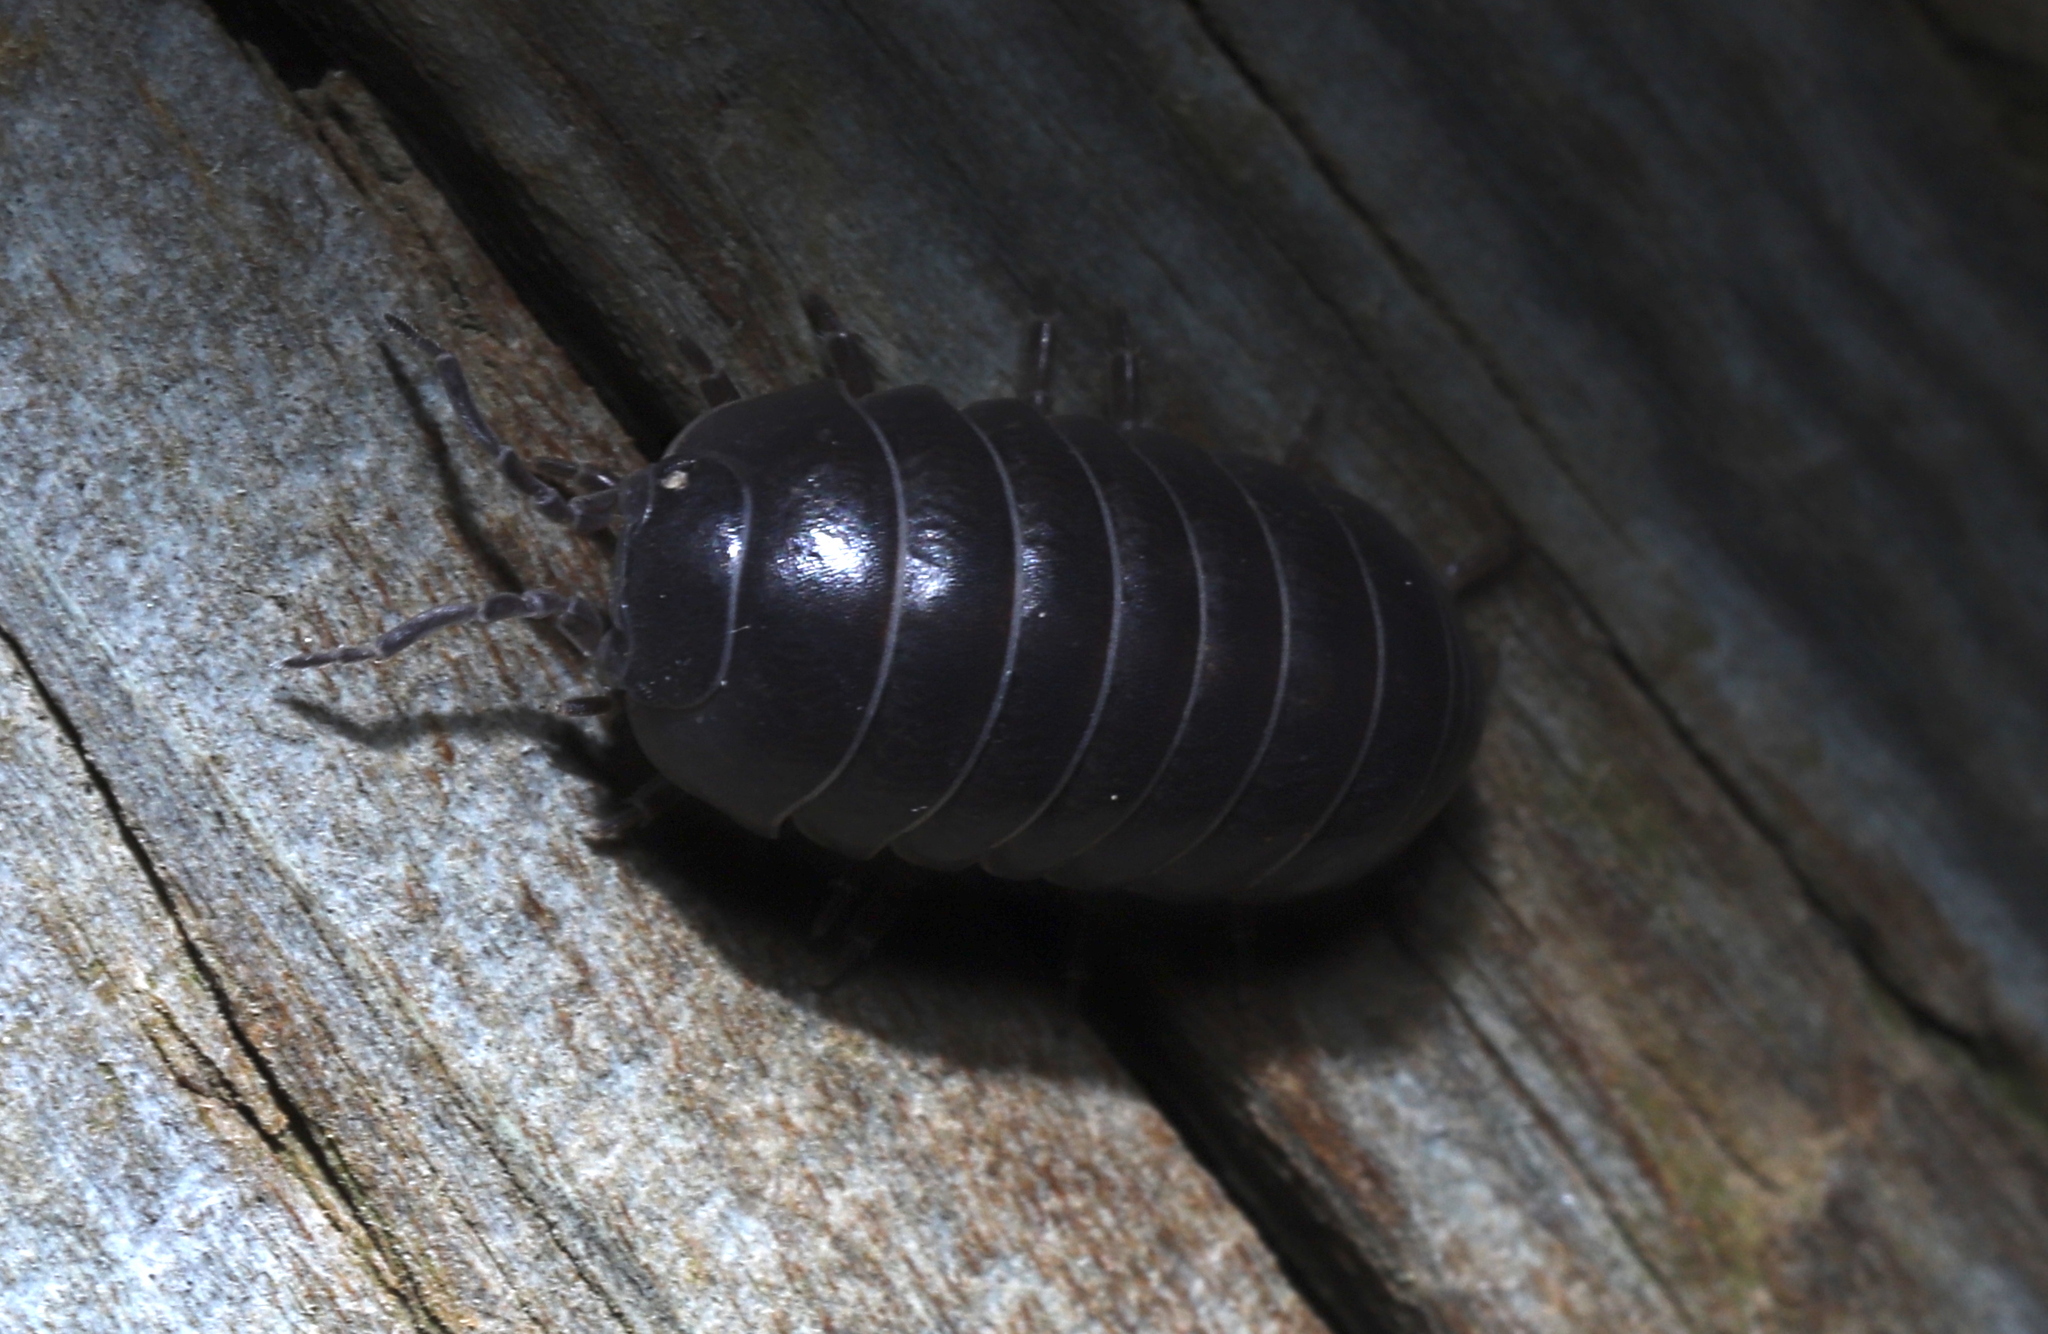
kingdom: Animalia
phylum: Arthropoda
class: Malacostraca
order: Isopoda
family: Armadillidiidae
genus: Armadillidium
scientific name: Armadillidium vulgare
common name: Common pill woodlouse
